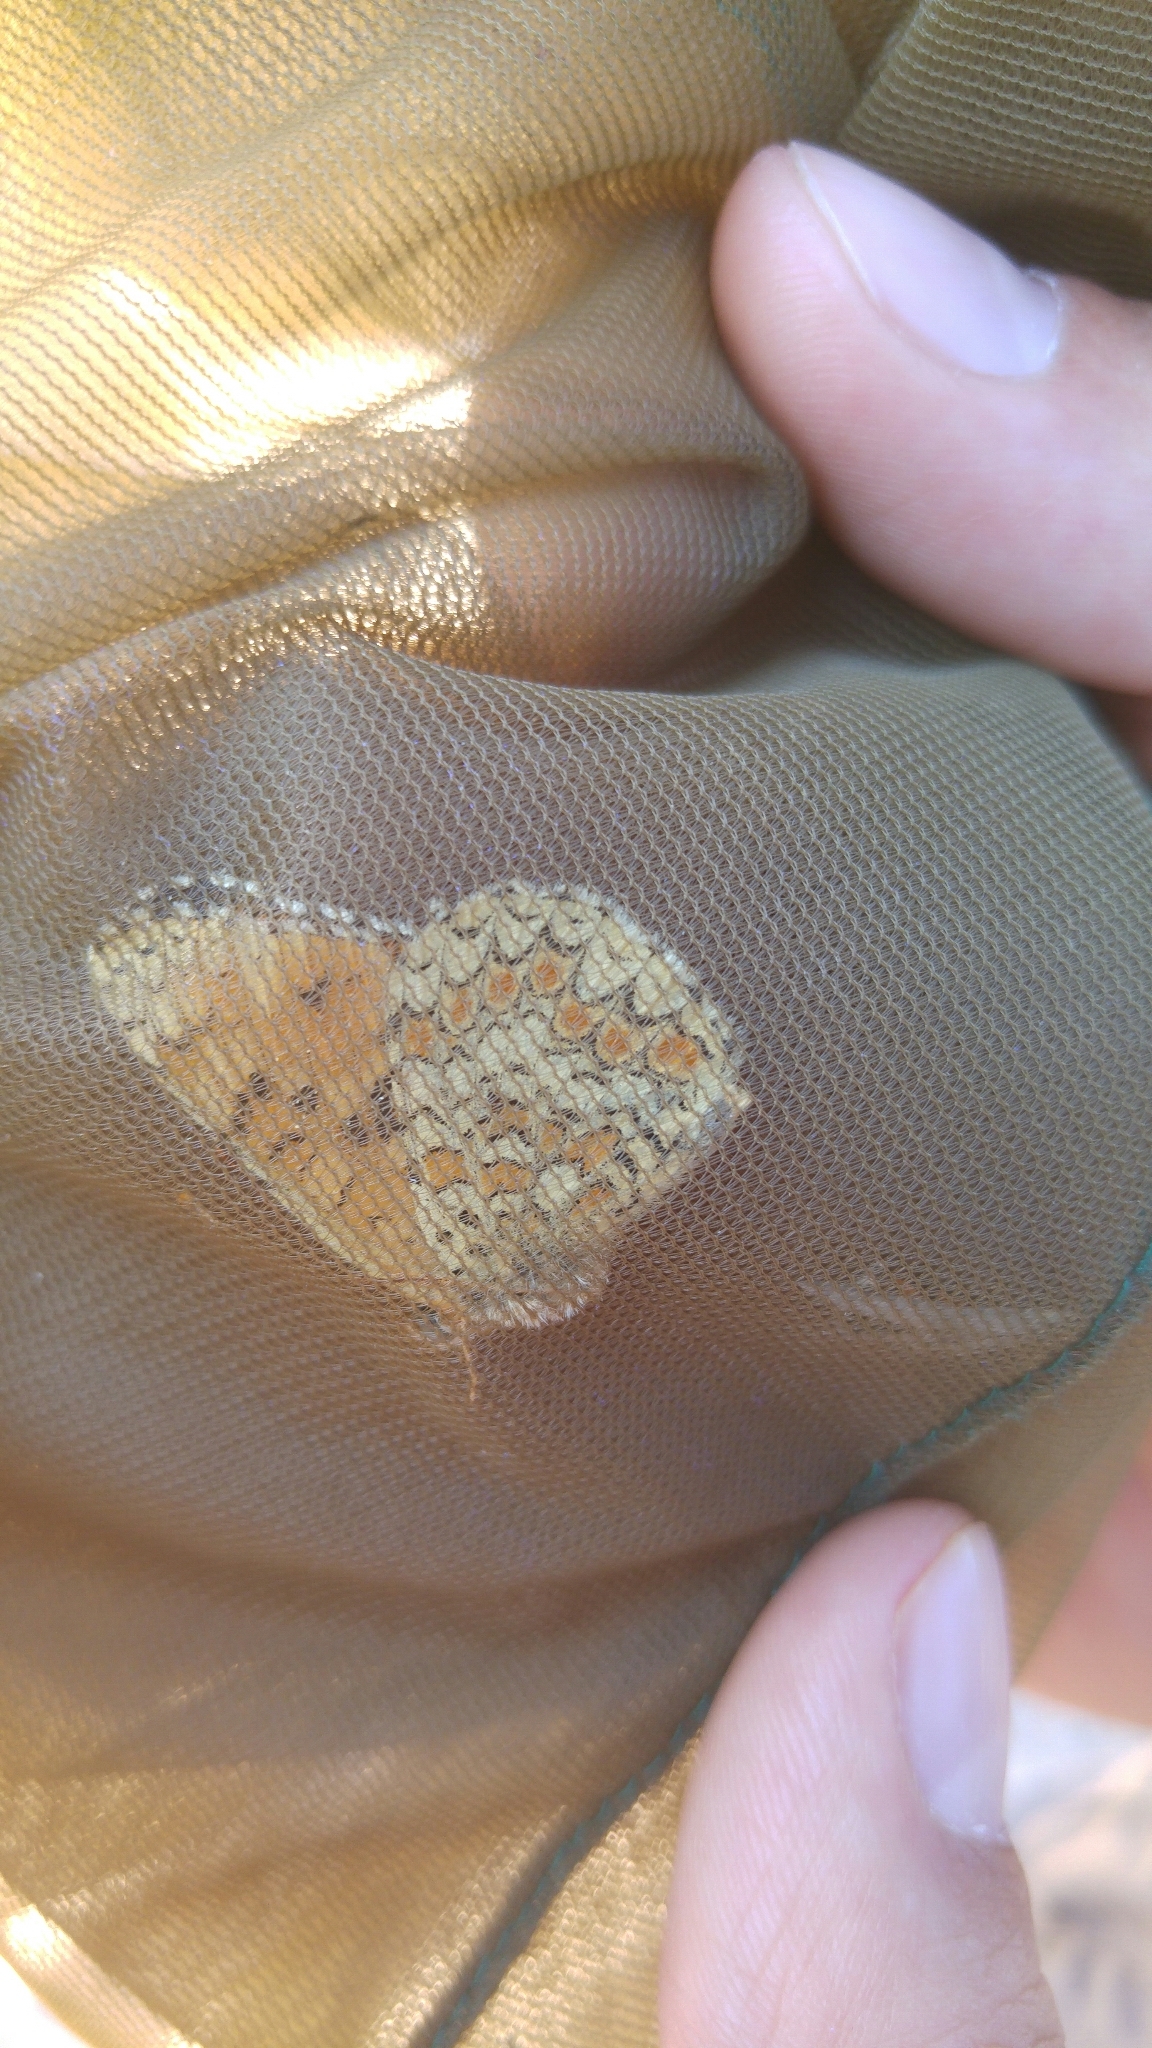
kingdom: Animalia
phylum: Arthropoda
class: Insecta
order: Lepidoptera
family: Nymphalidae
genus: Melitaea
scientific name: Melitaea phoebe
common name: Knapweed fritillary
